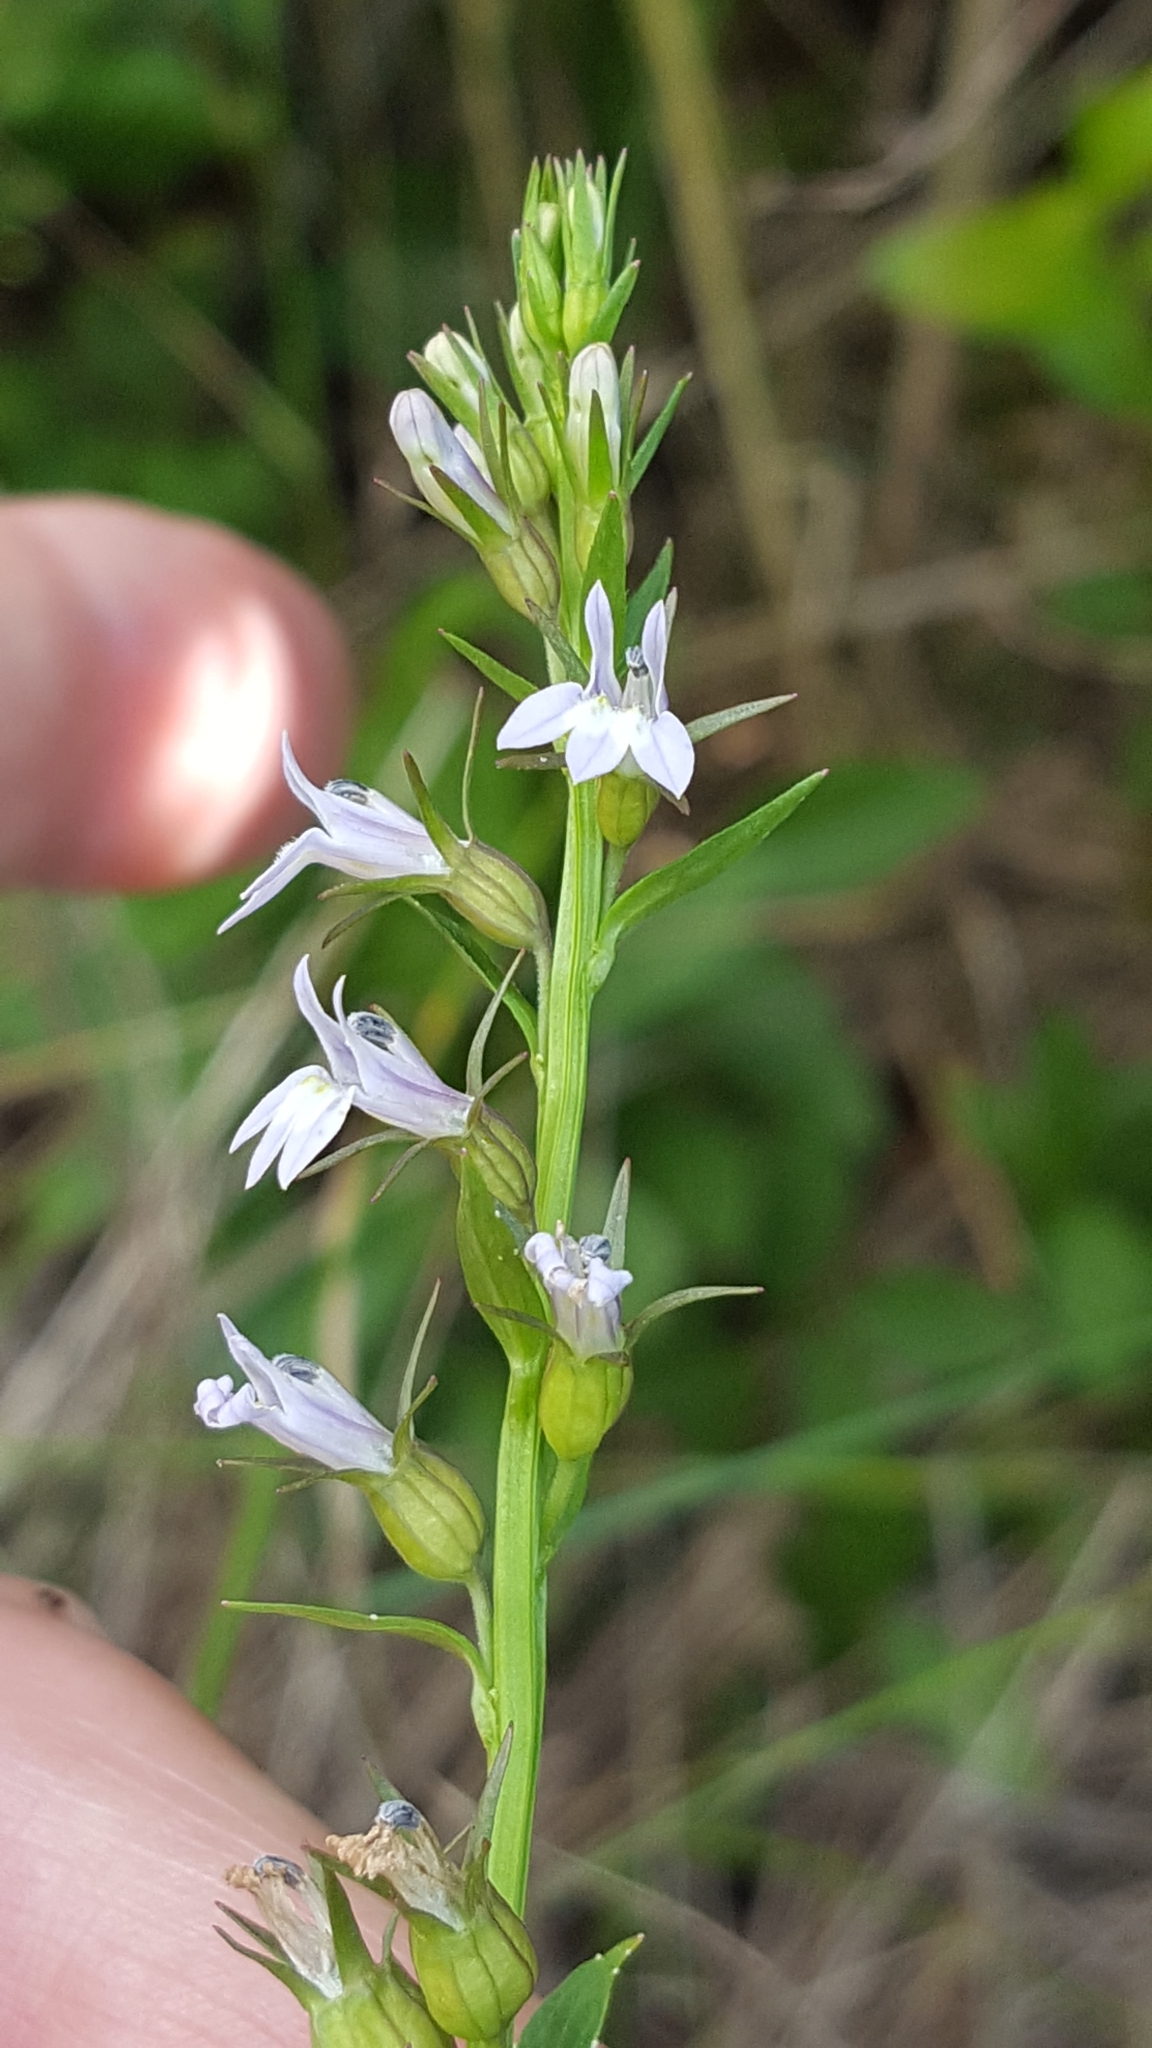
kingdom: Plantae
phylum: Tracheophyta
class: Magnoliopsida
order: Asterales
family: Campanulaceae
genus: Lobelia
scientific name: Lobelia inflata
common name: Indian tobacco
